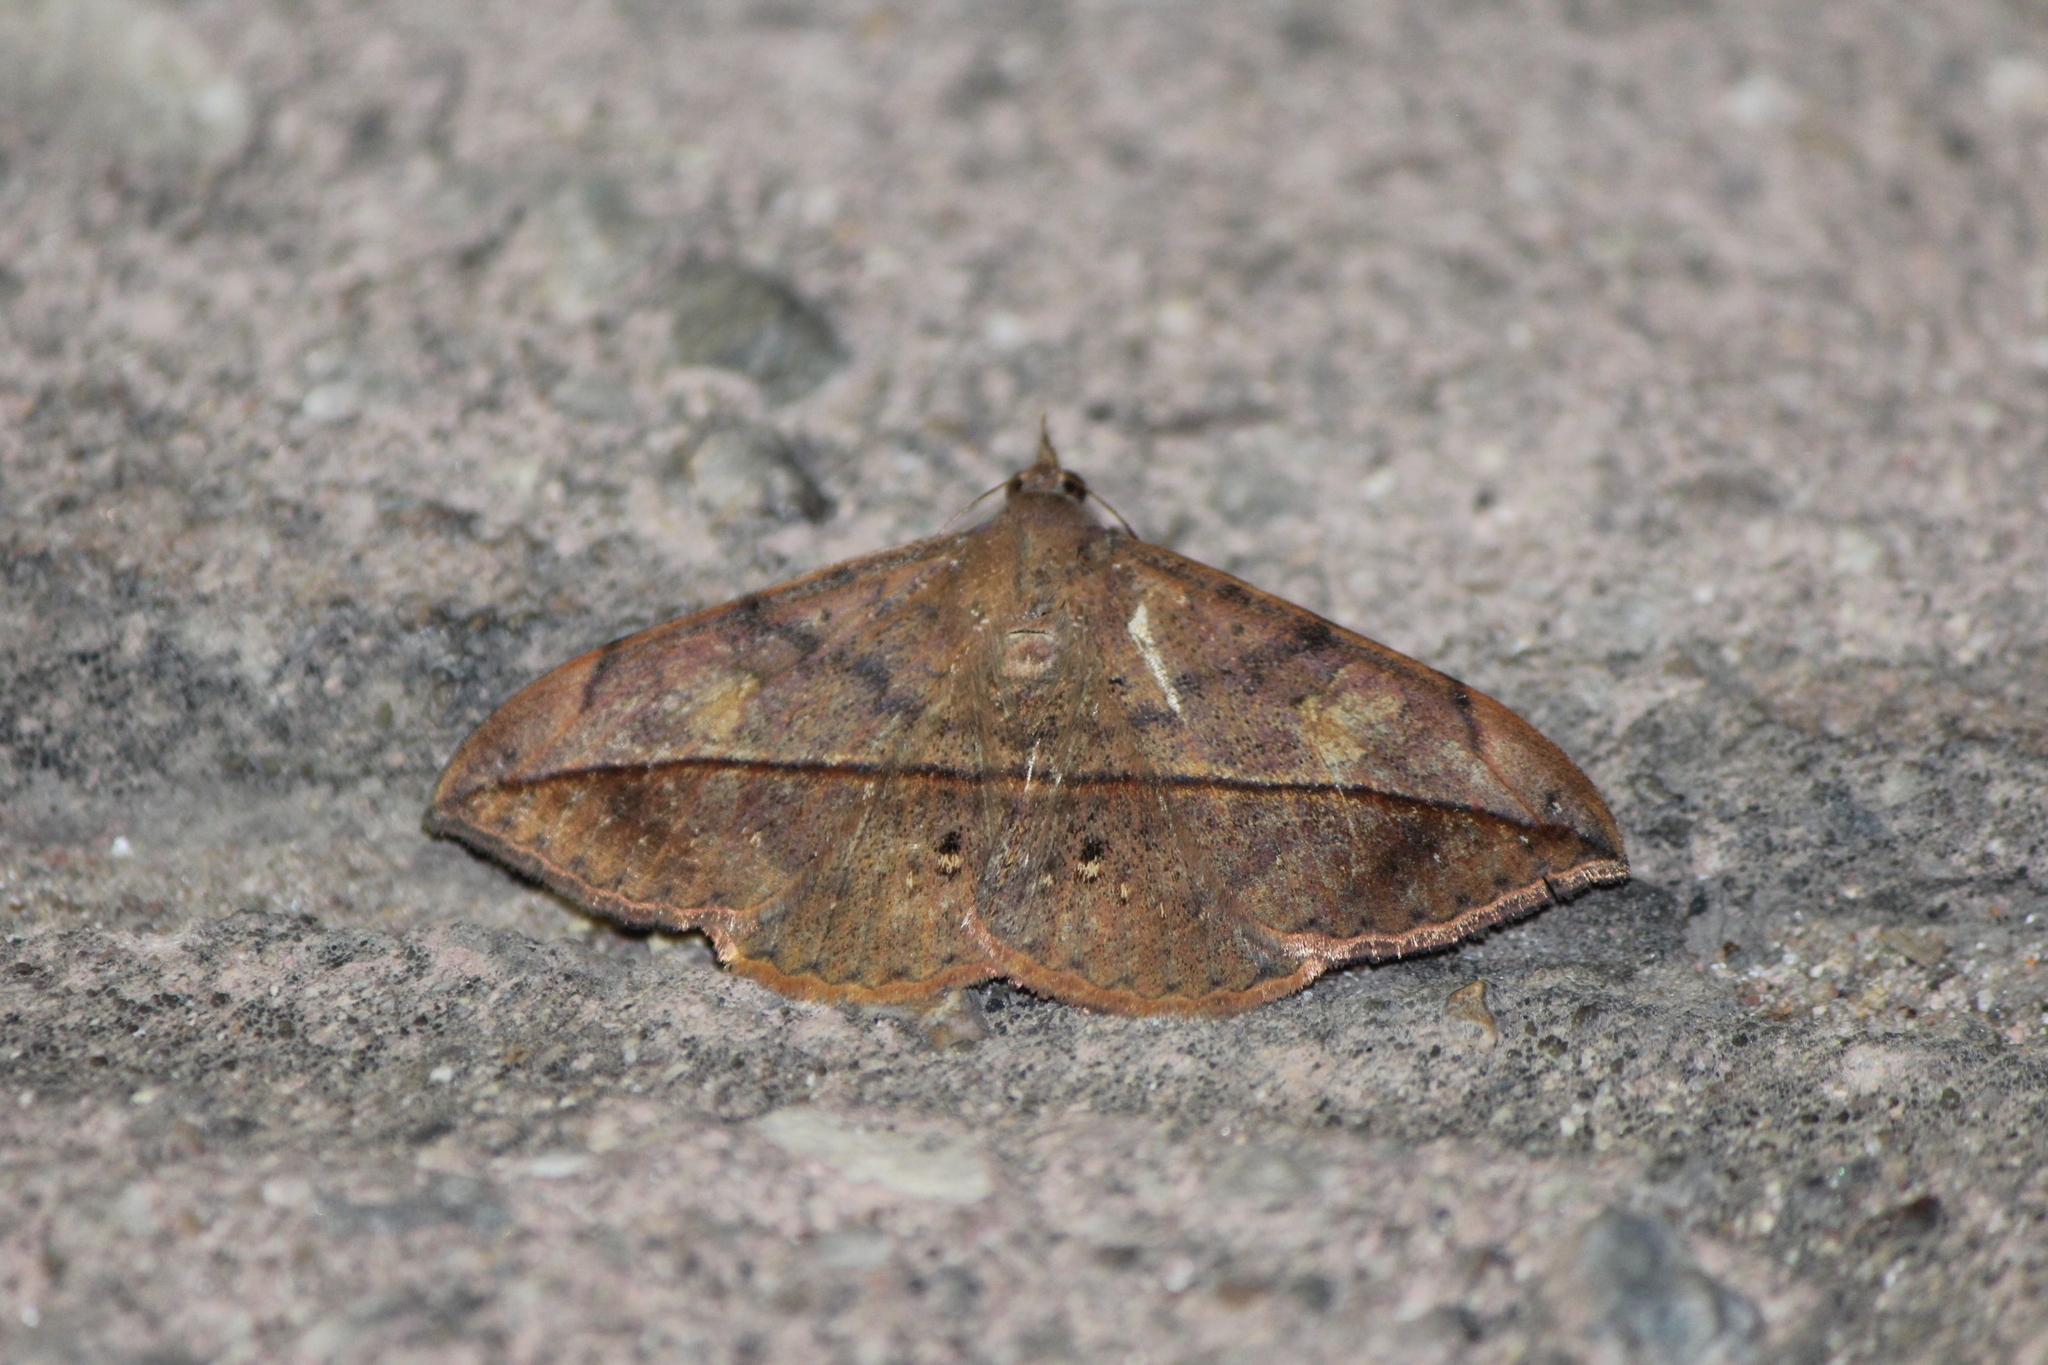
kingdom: Animalia
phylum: Arthropoda
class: Insecta
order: Lepidoptera
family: Erebidae
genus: Anticarsia
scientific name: Anticarsia gemmatalis
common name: Cutworm moth
